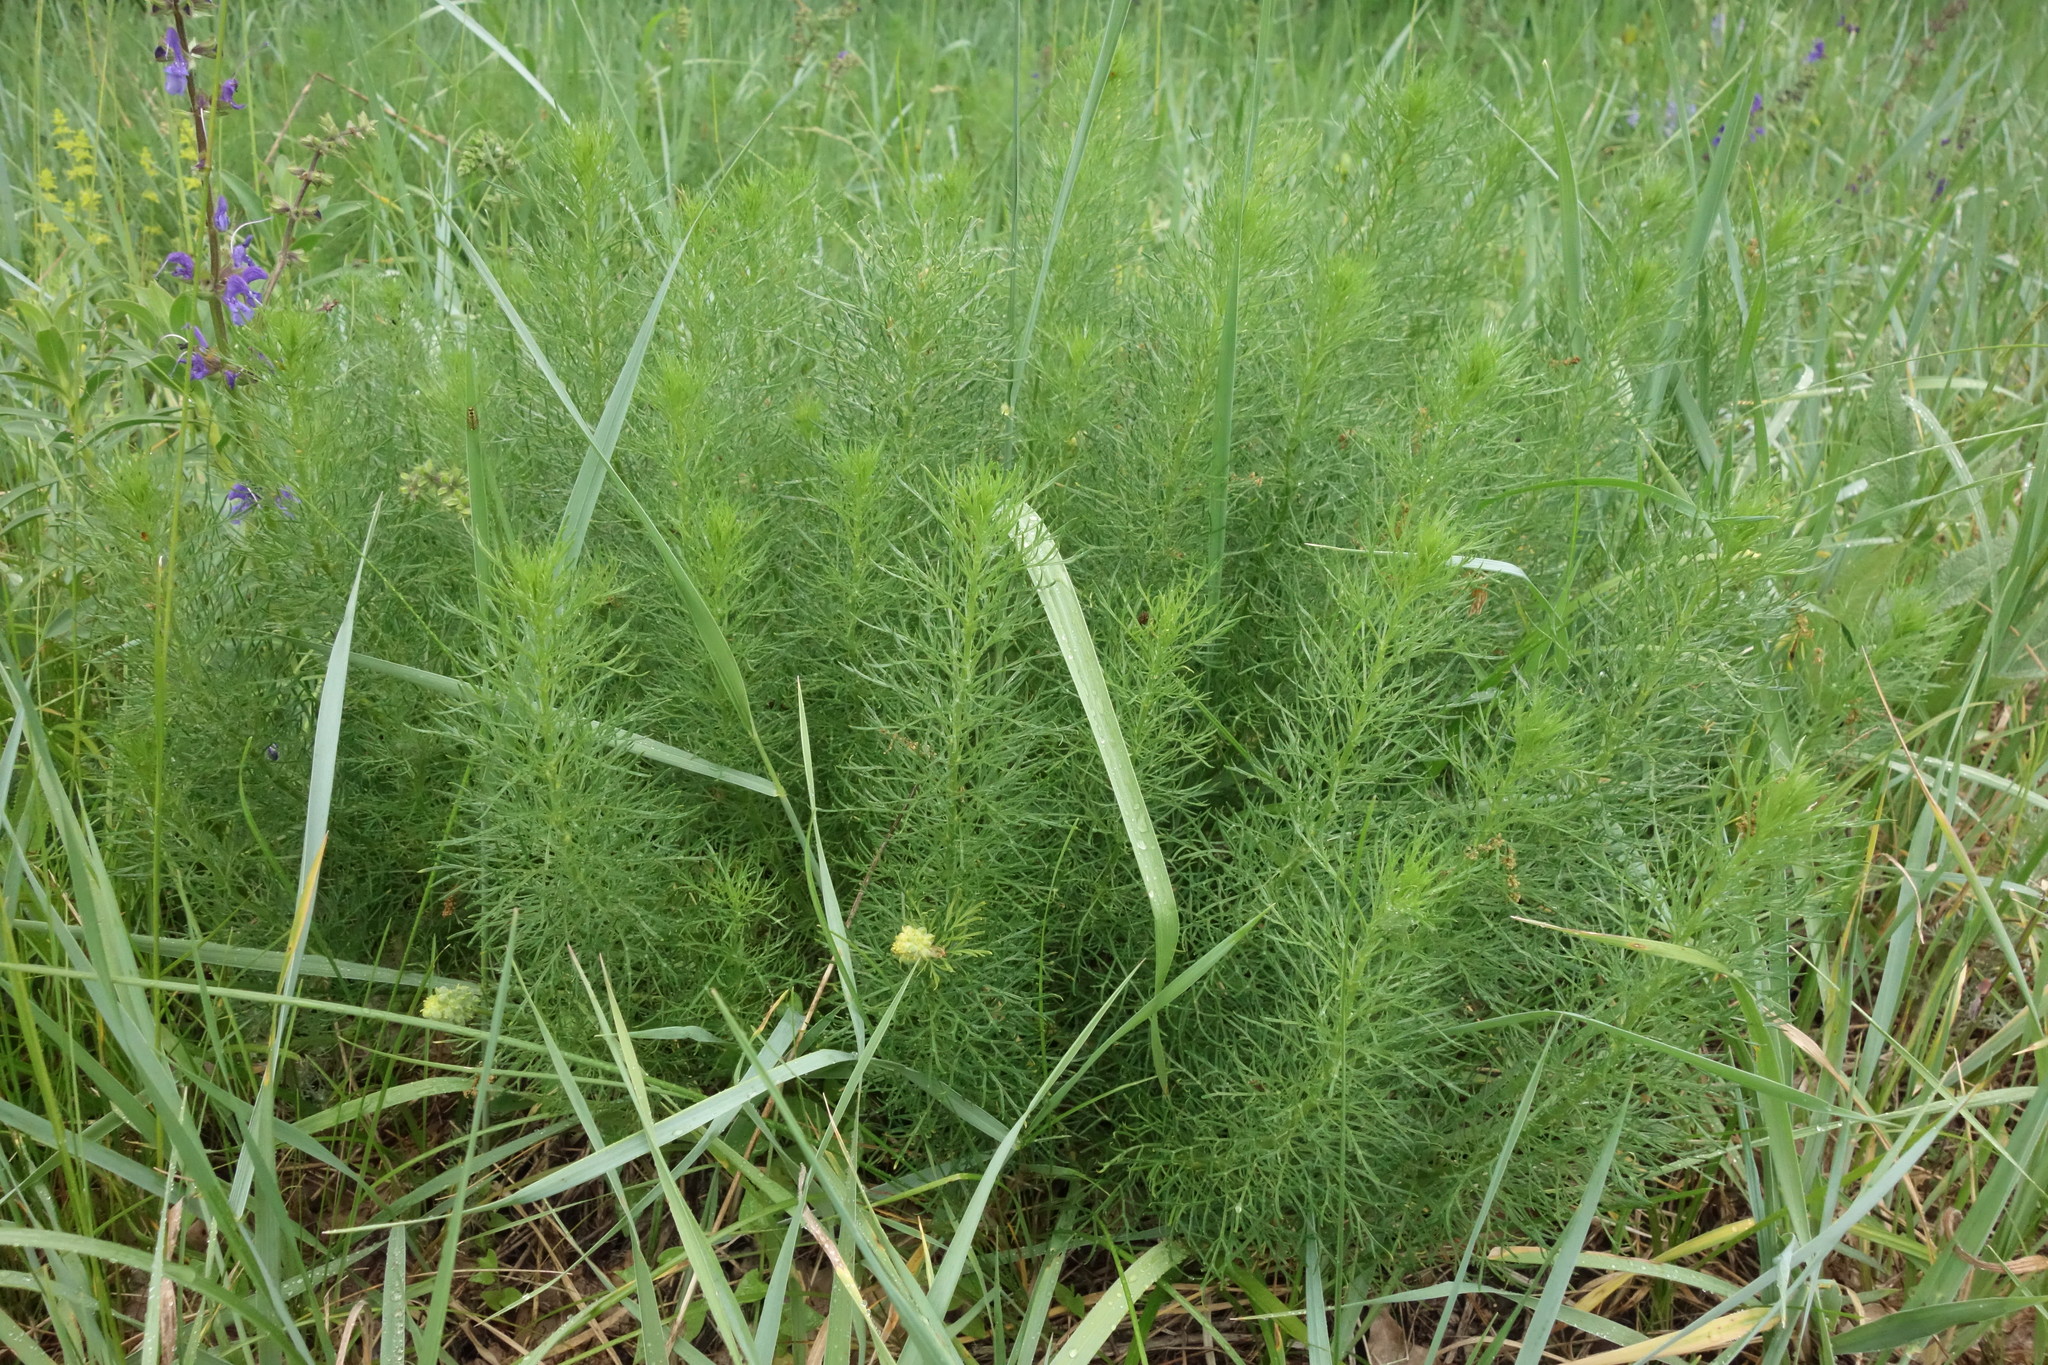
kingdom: Plantae
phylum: Tracheophyta
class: Magnoliopsida
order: Ranunculales
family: Ranunculaceae
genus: Adonis
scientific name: Adonis vernalis
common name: Yellow pheasants-eye
